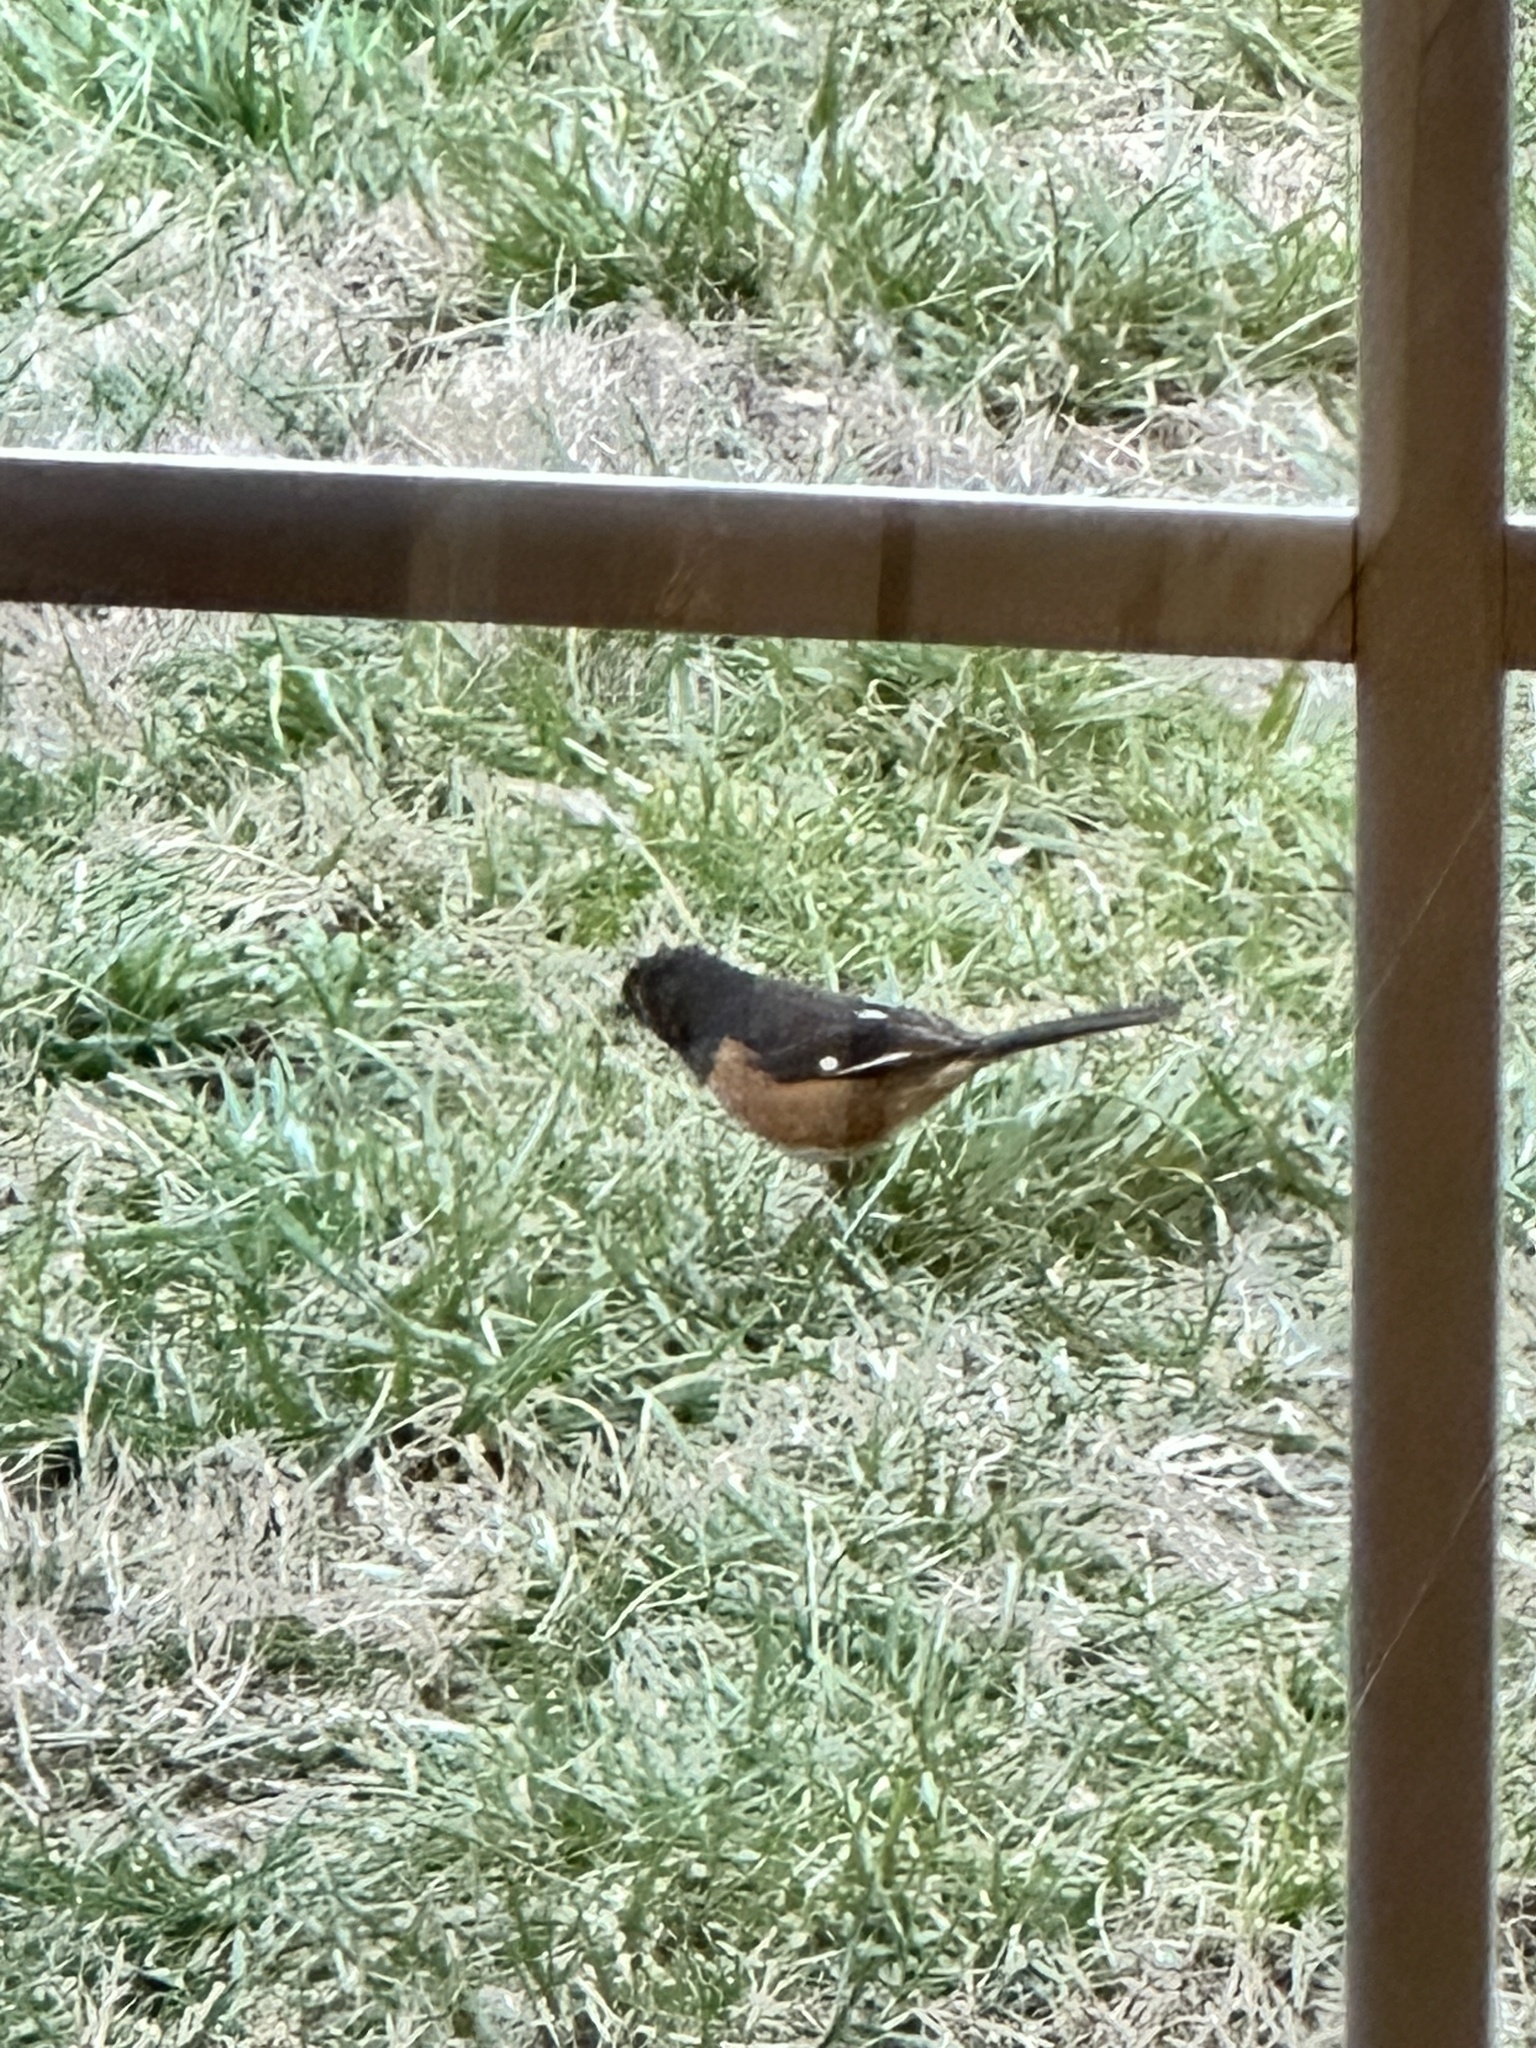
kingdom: Animalia
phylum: Chordata
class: Aves
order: Passeriformes
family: Passerellidae
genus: Pipilo
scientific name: Pipilo erythrophthalmus
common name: Eastern towhee
